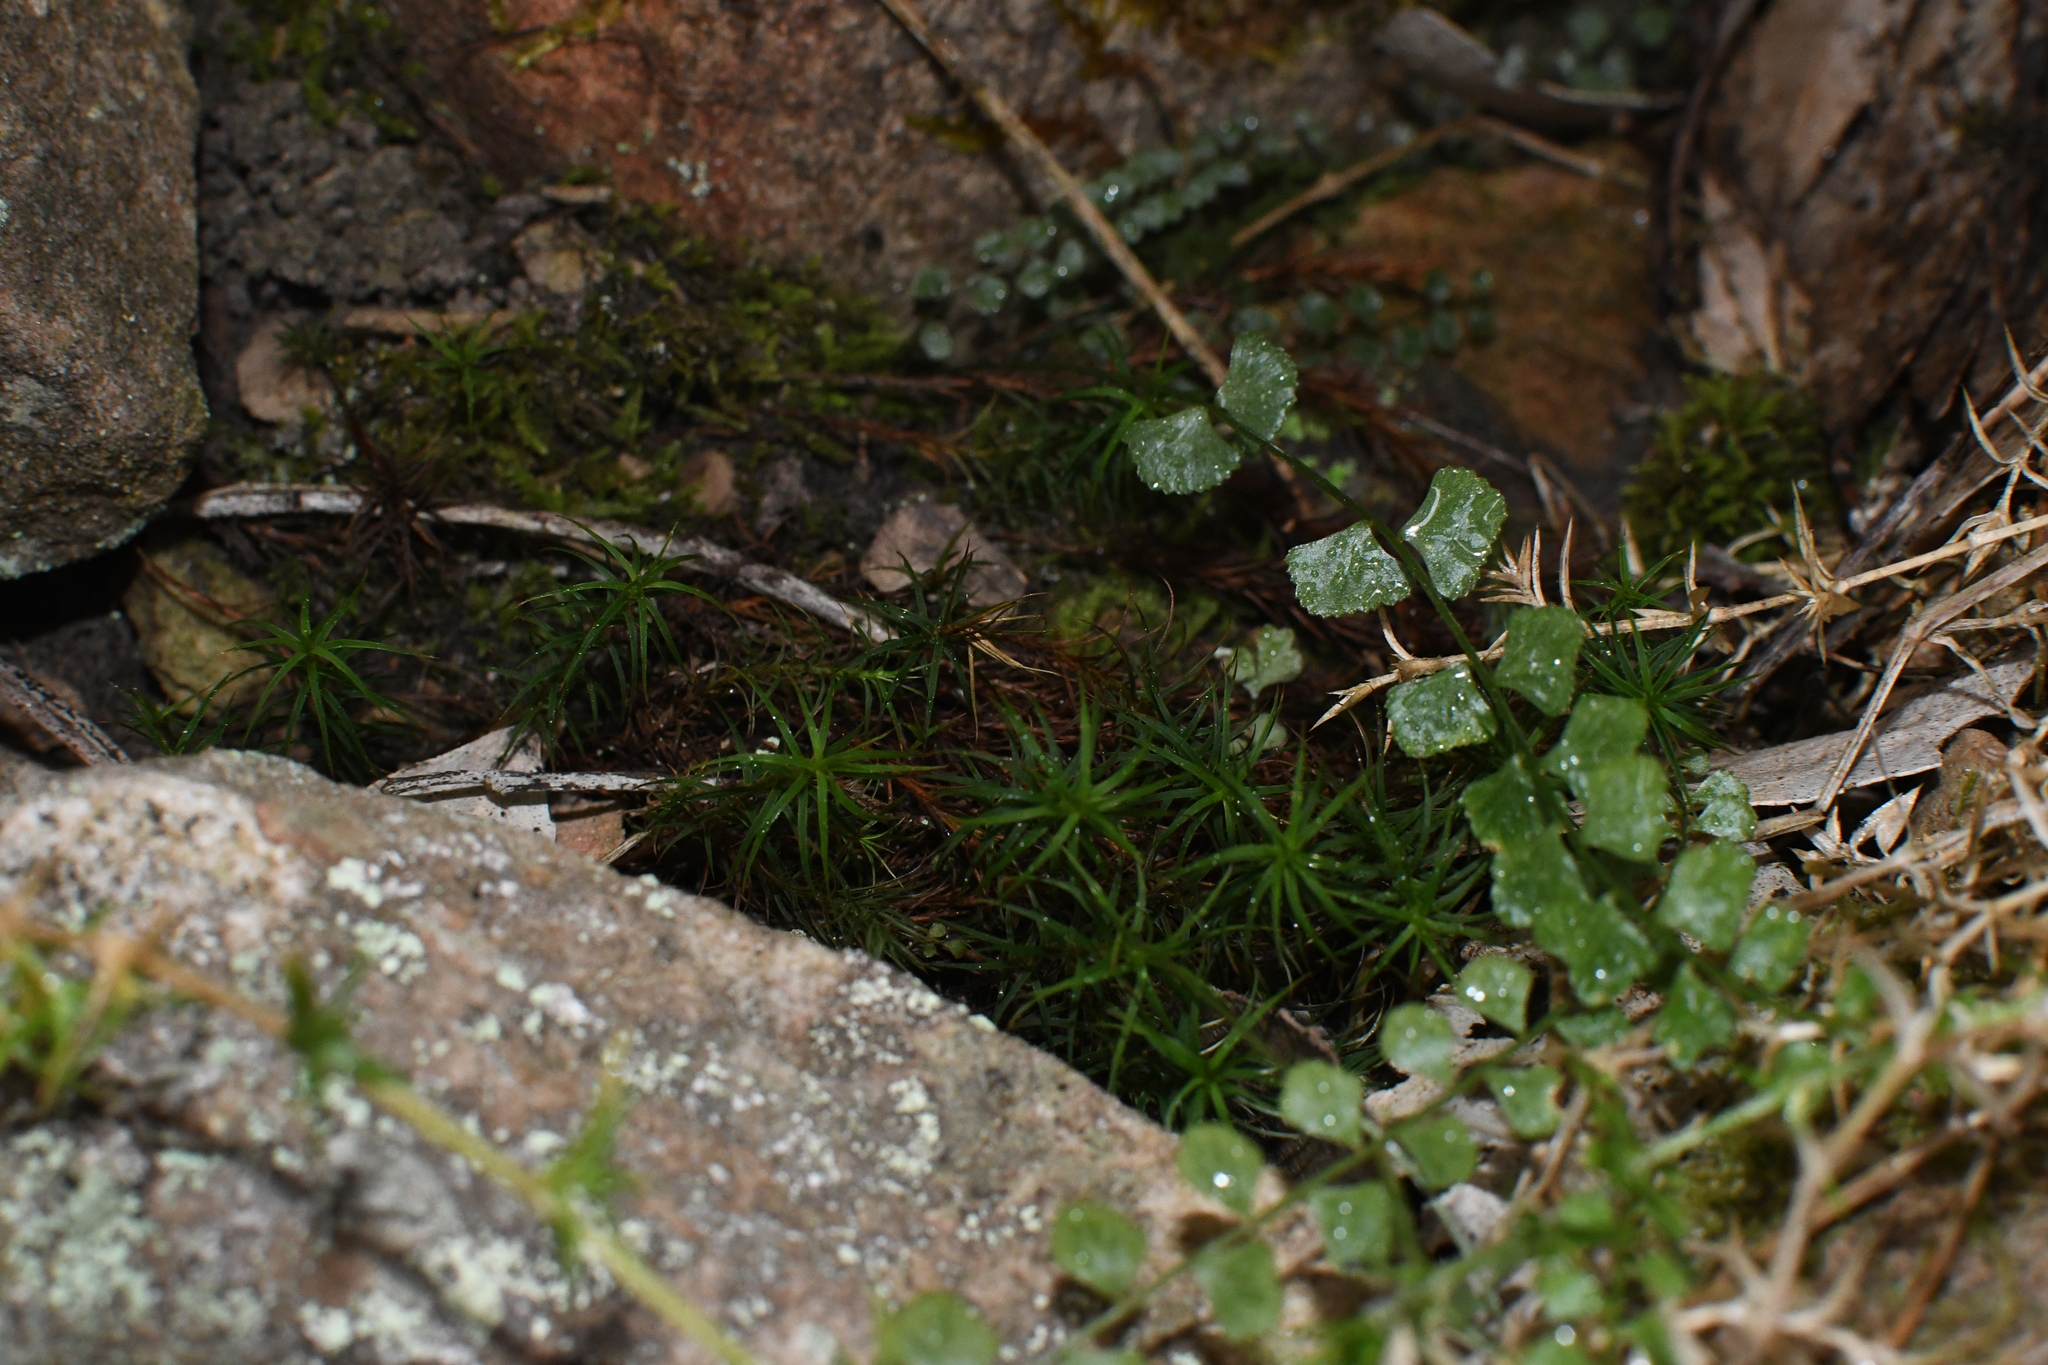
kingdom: Plantae
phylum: Tracheophyta
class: Polypodiopsida
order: Polypodiales
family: Aspleniaceae
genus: Asplenium
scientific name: Asplenium flabellifolium
